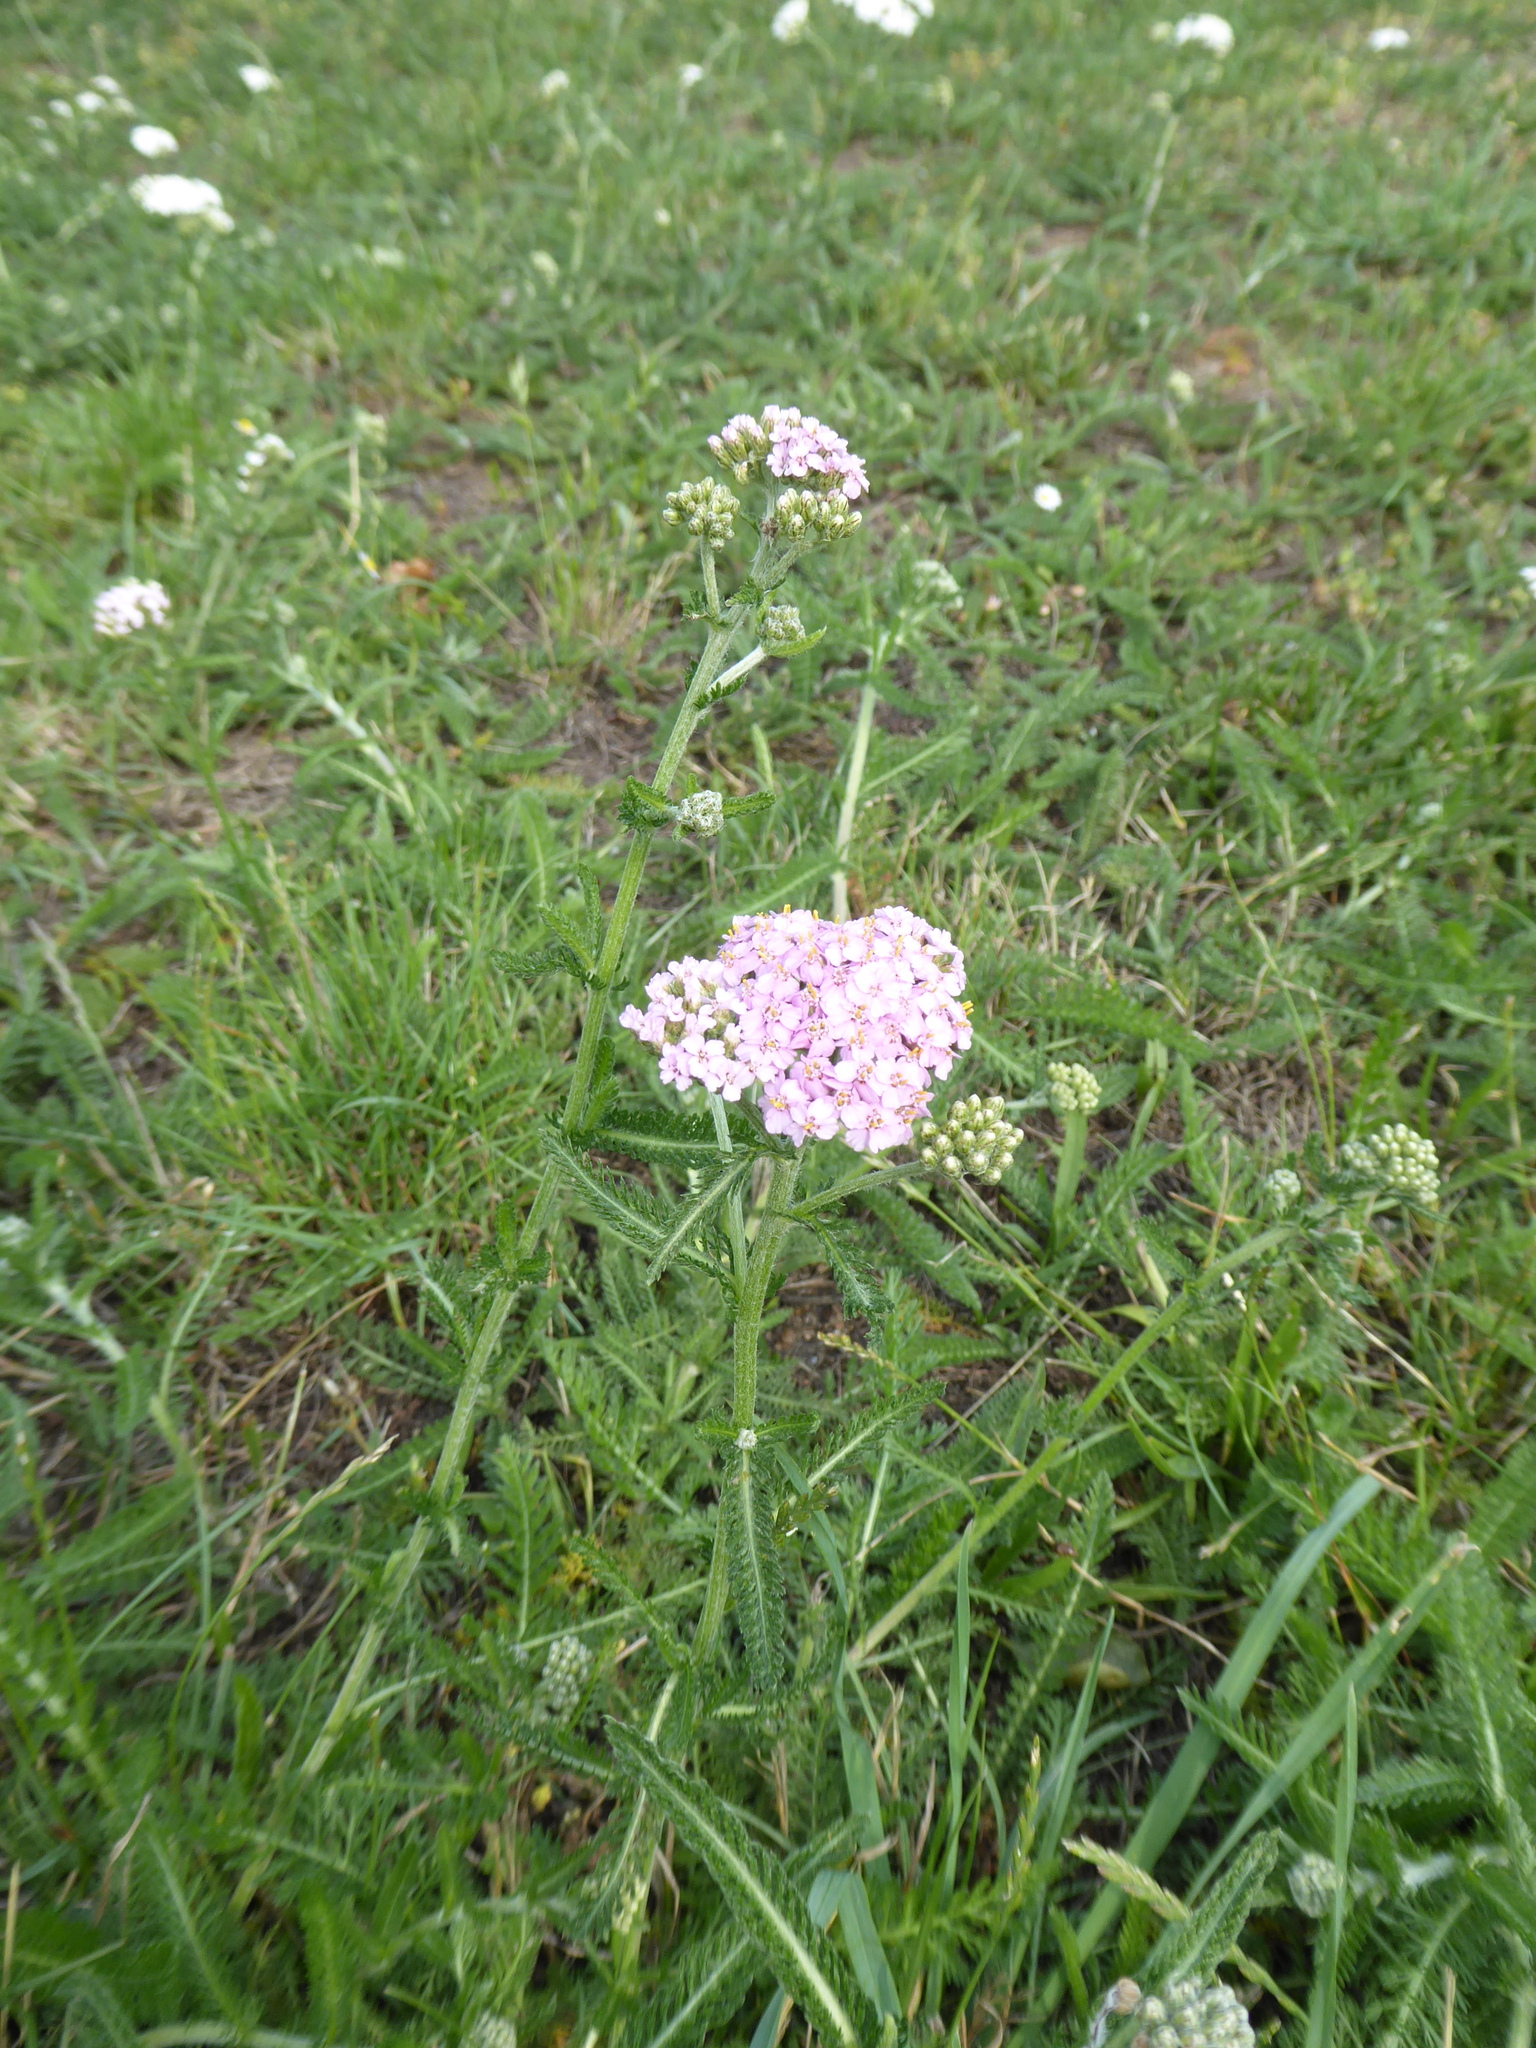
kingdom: Plantae
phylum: Tracheophyta
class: Magnoliopsida
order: Asterales
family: Asteraceae
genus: Achillea
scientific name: Achillea millefolium
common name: Yarrow
